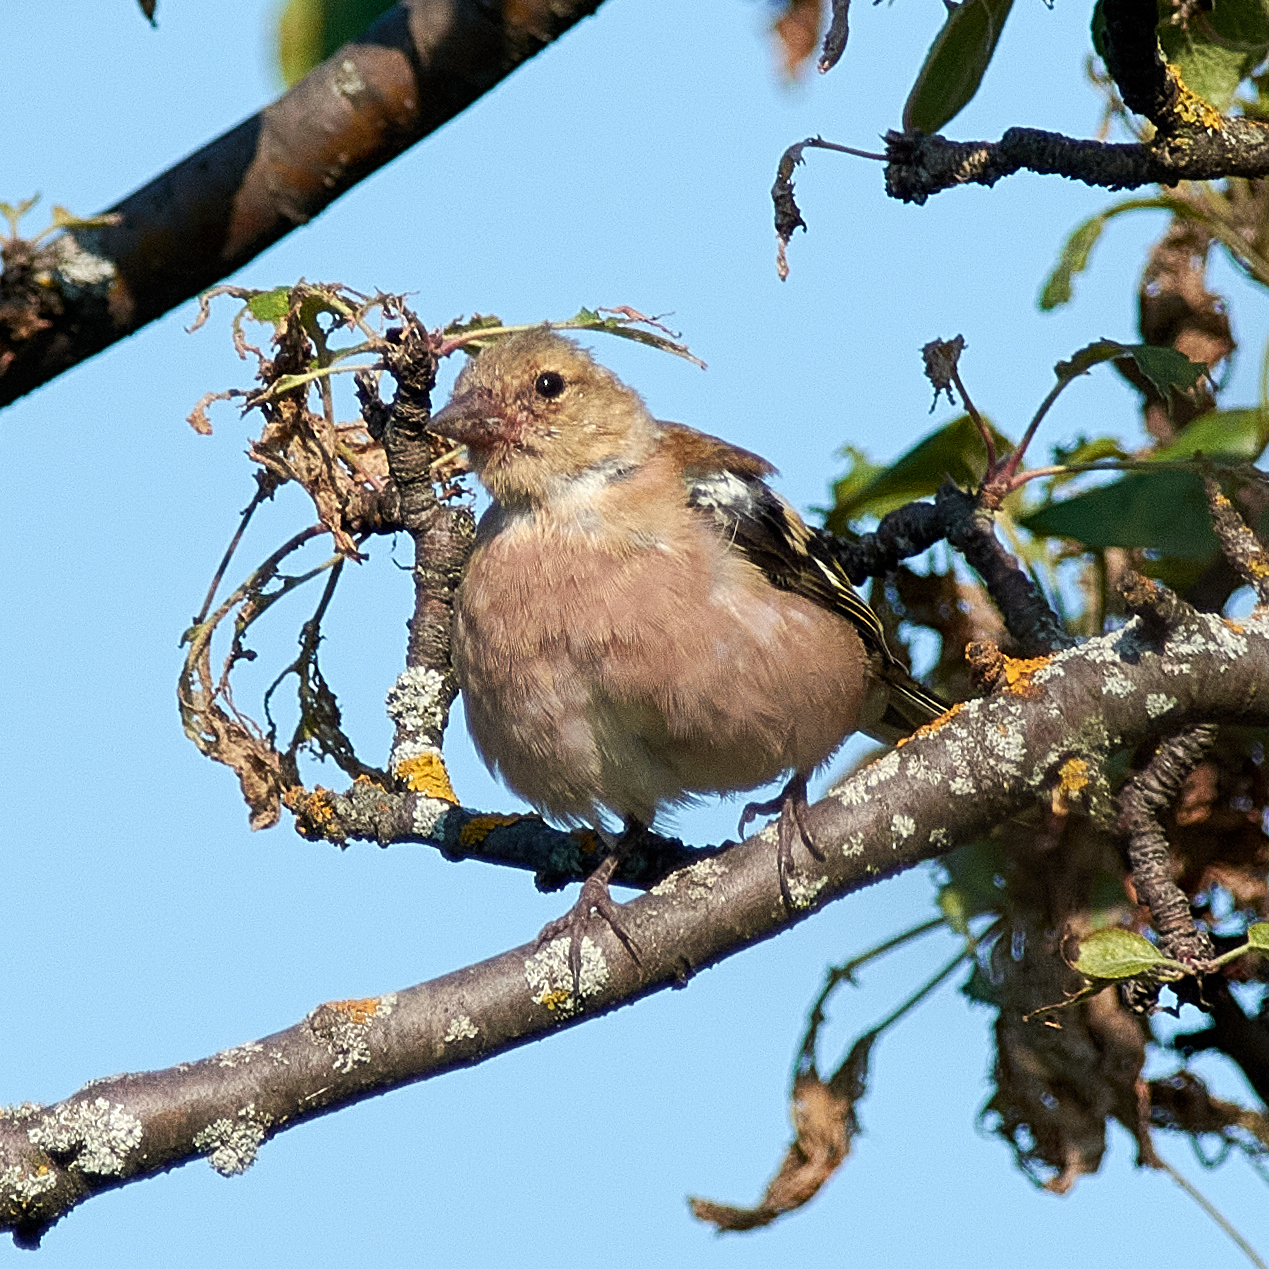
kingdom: Animalia
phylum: Chordata
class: Aves
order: Passeriformes
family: Fringillidae
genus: Fringilla
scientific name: Fringilla coelebs
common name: Common chaffinch
